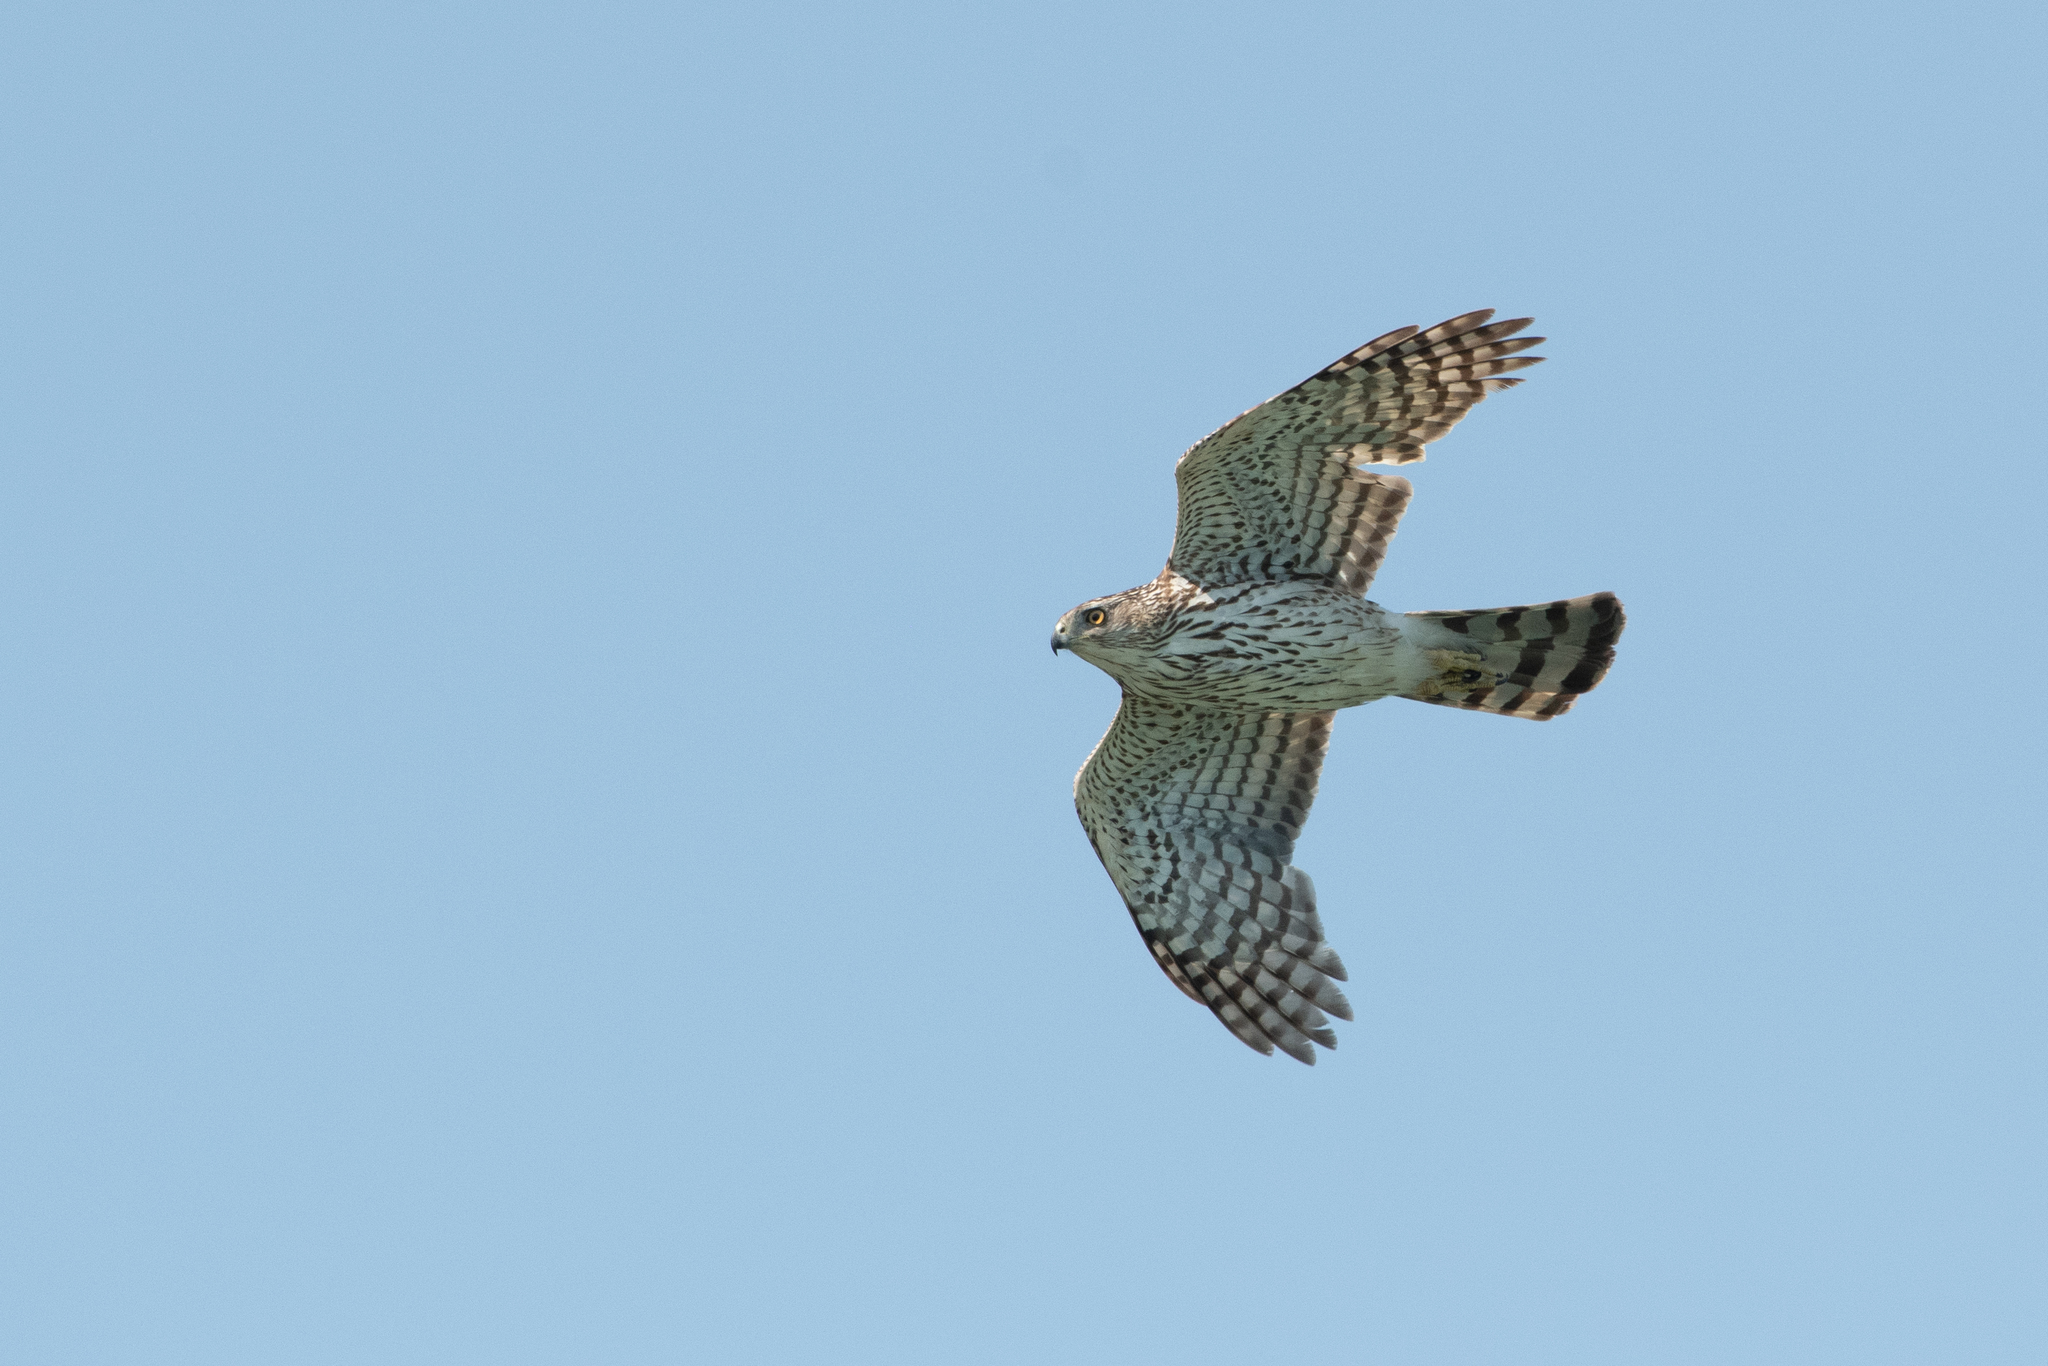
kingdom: Animalia
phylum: Chordata
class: Aves
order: Accipitriformes
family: Accipitridae
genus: Accipiter
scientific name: Accipiter cooperii
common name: Cooper's hawk
